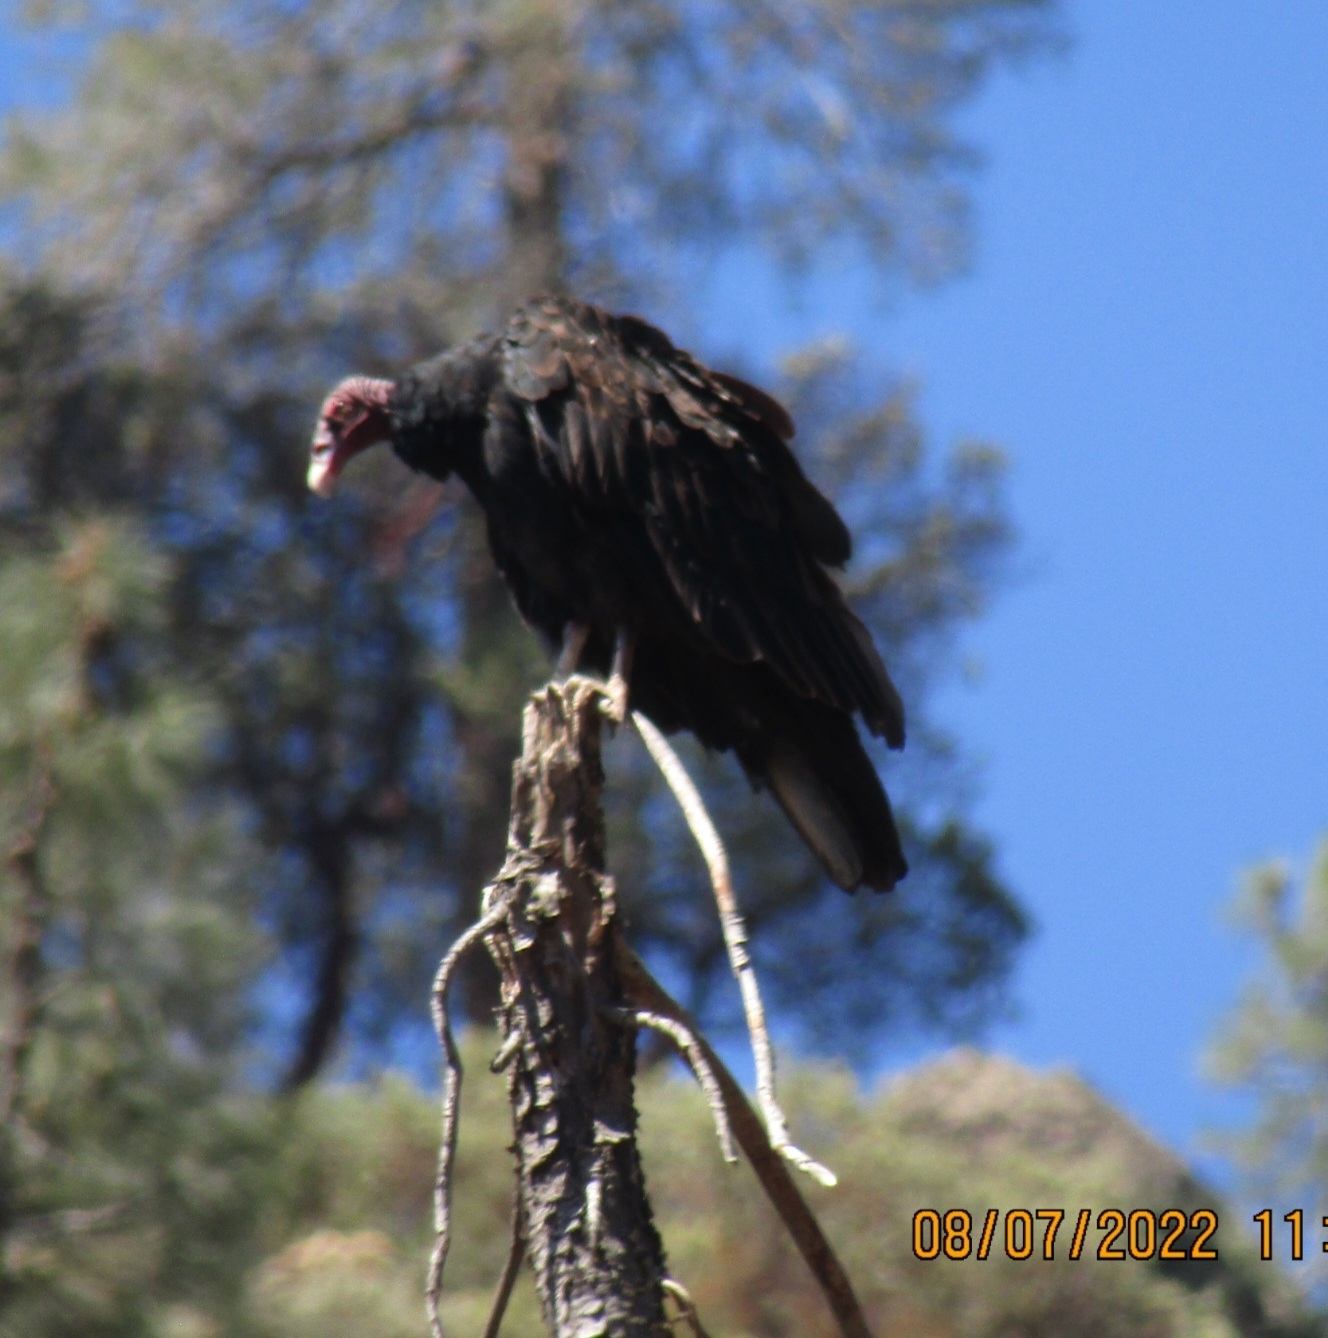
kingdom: Animalia
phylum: Chordata
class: Aves
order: Accipitriformes
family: Cathartidae
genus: Cathartes
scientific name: Cathartes aura
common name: Turkey vulture
